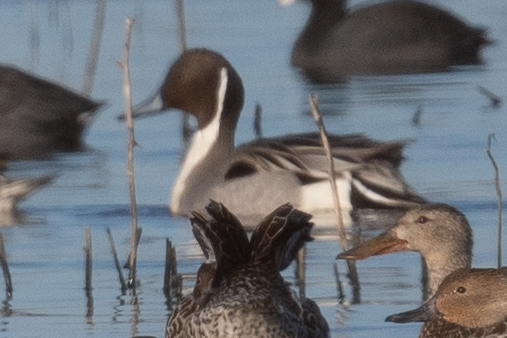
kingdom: Animalia
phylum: Chordata
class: Aves
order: Anseriformes
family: Anatidae
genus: Anas
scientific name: Anas acuta
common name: Northern pintail
